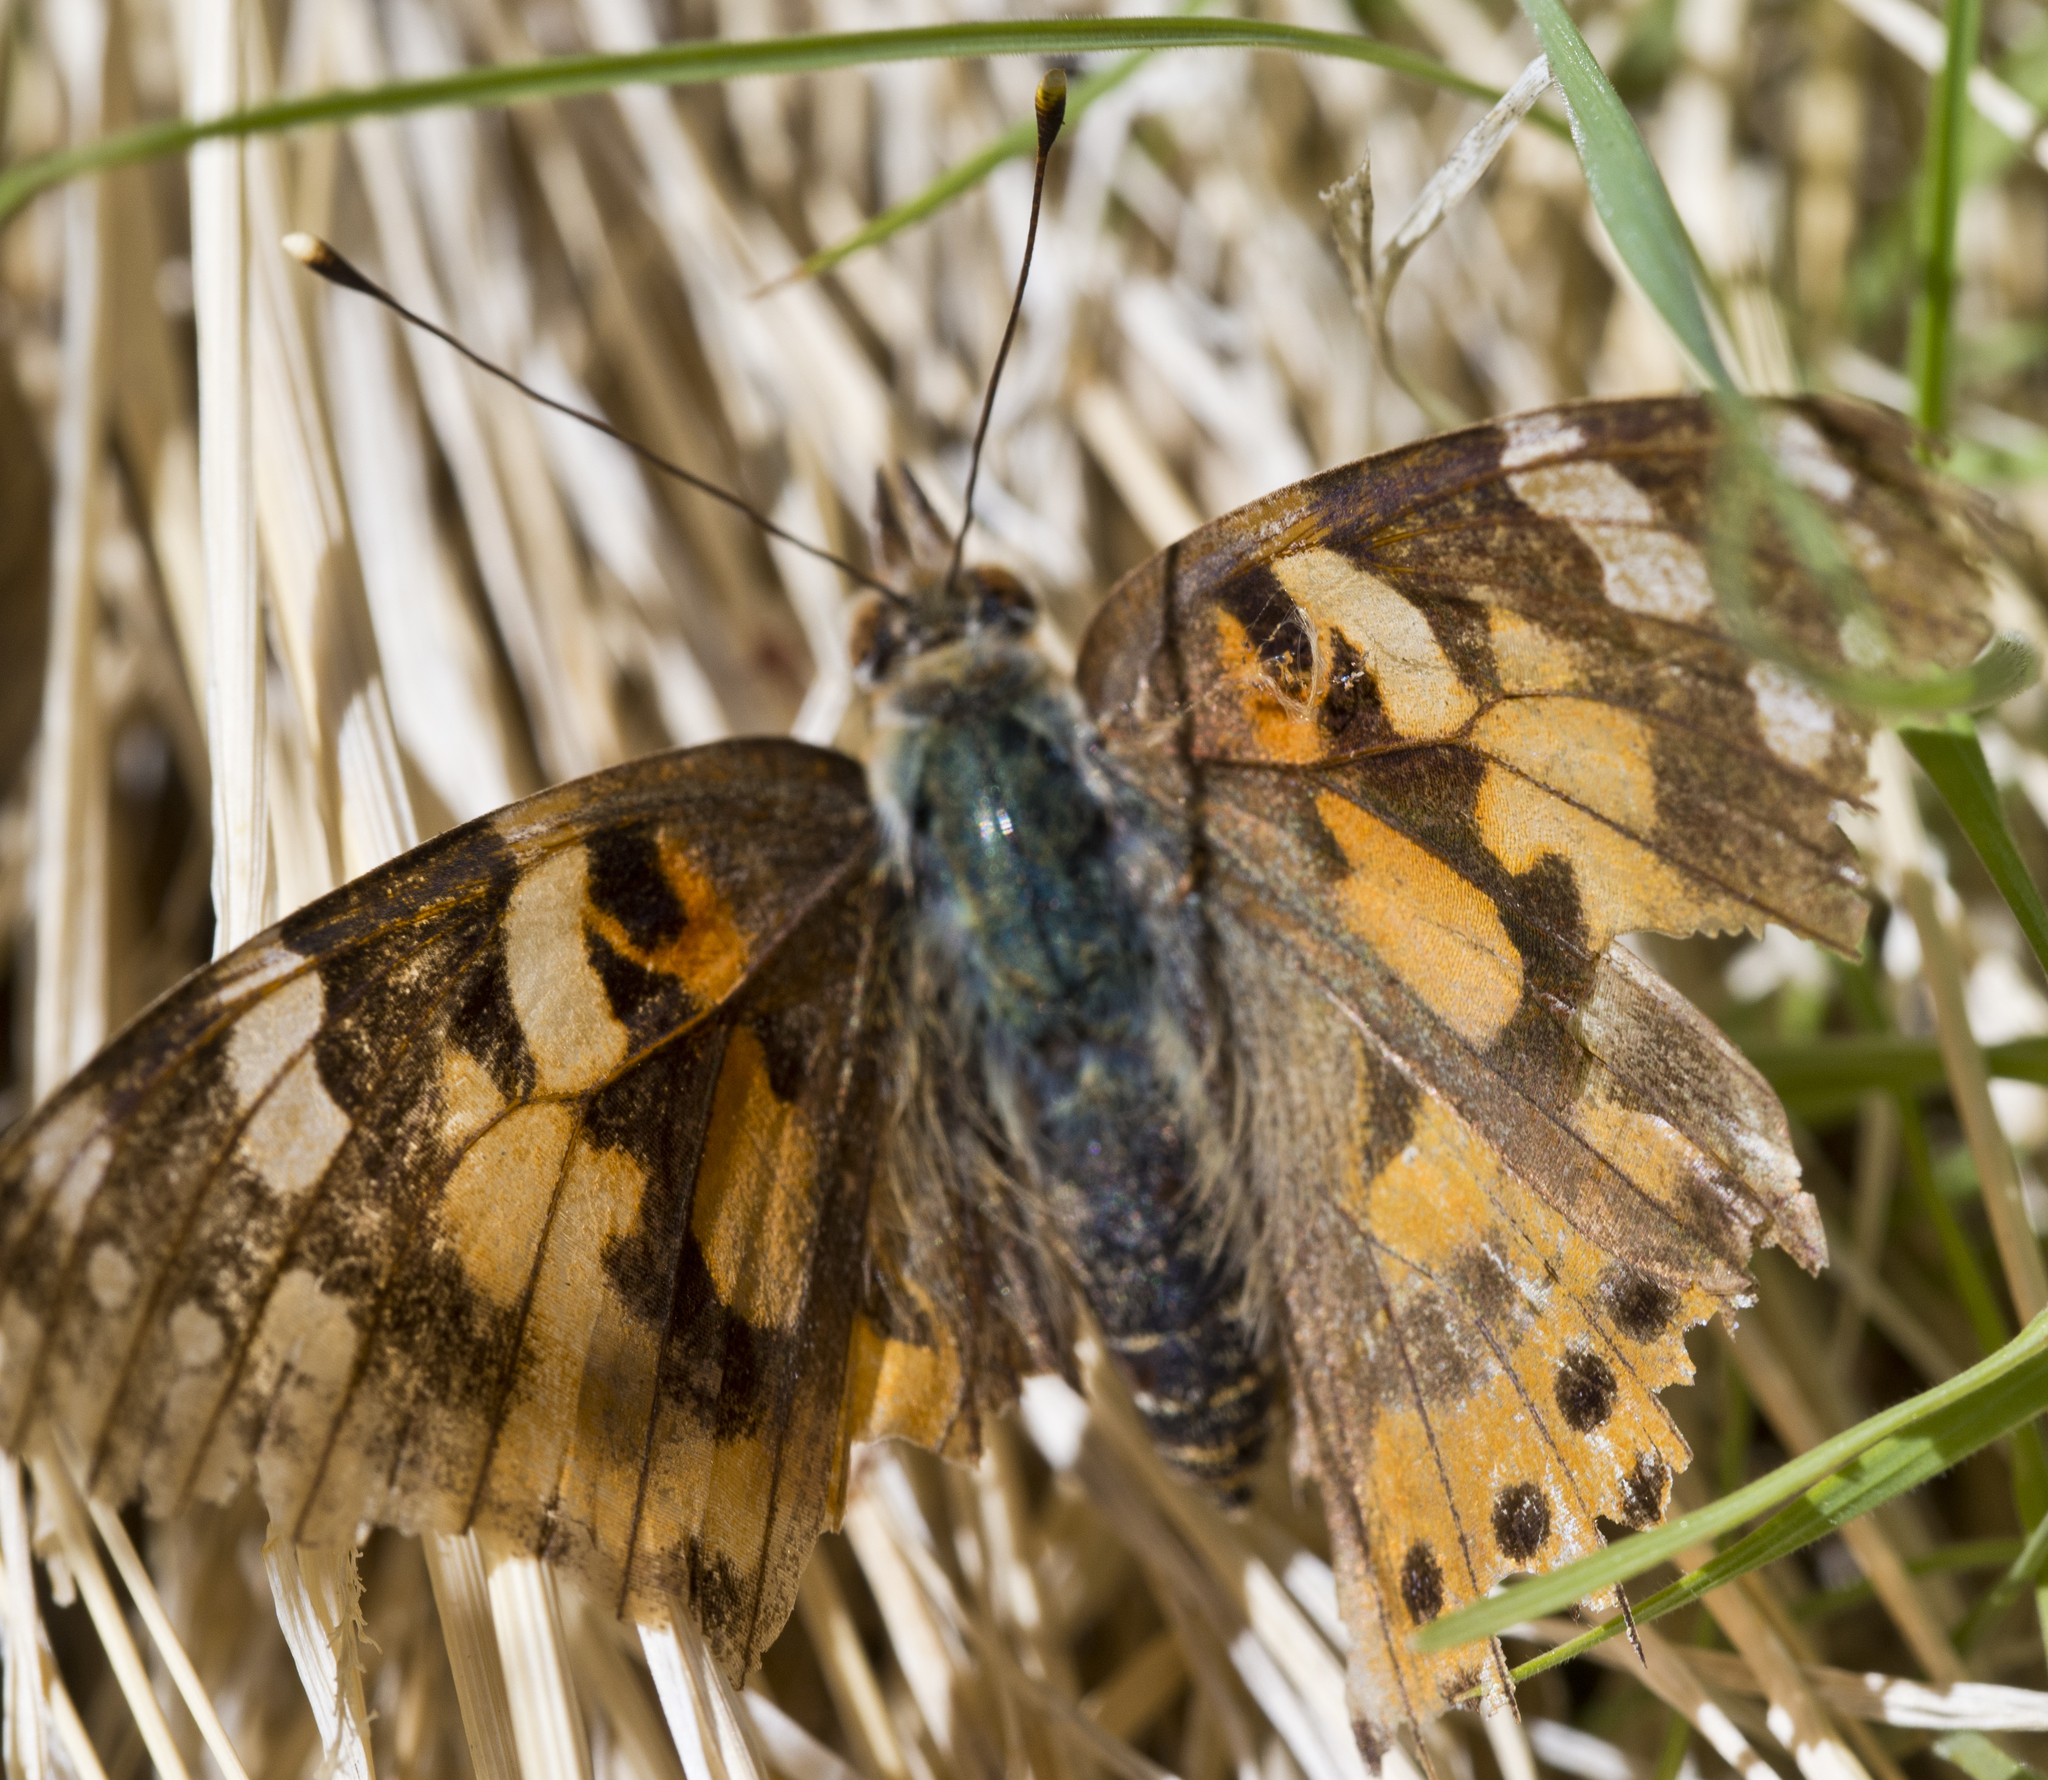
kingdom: Animalia
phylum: Arthropoda
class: Insecta
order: Lepidoptera
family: Nymphalidae
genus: Vanessa
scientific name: Vanessa cardui
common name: Painted lady
